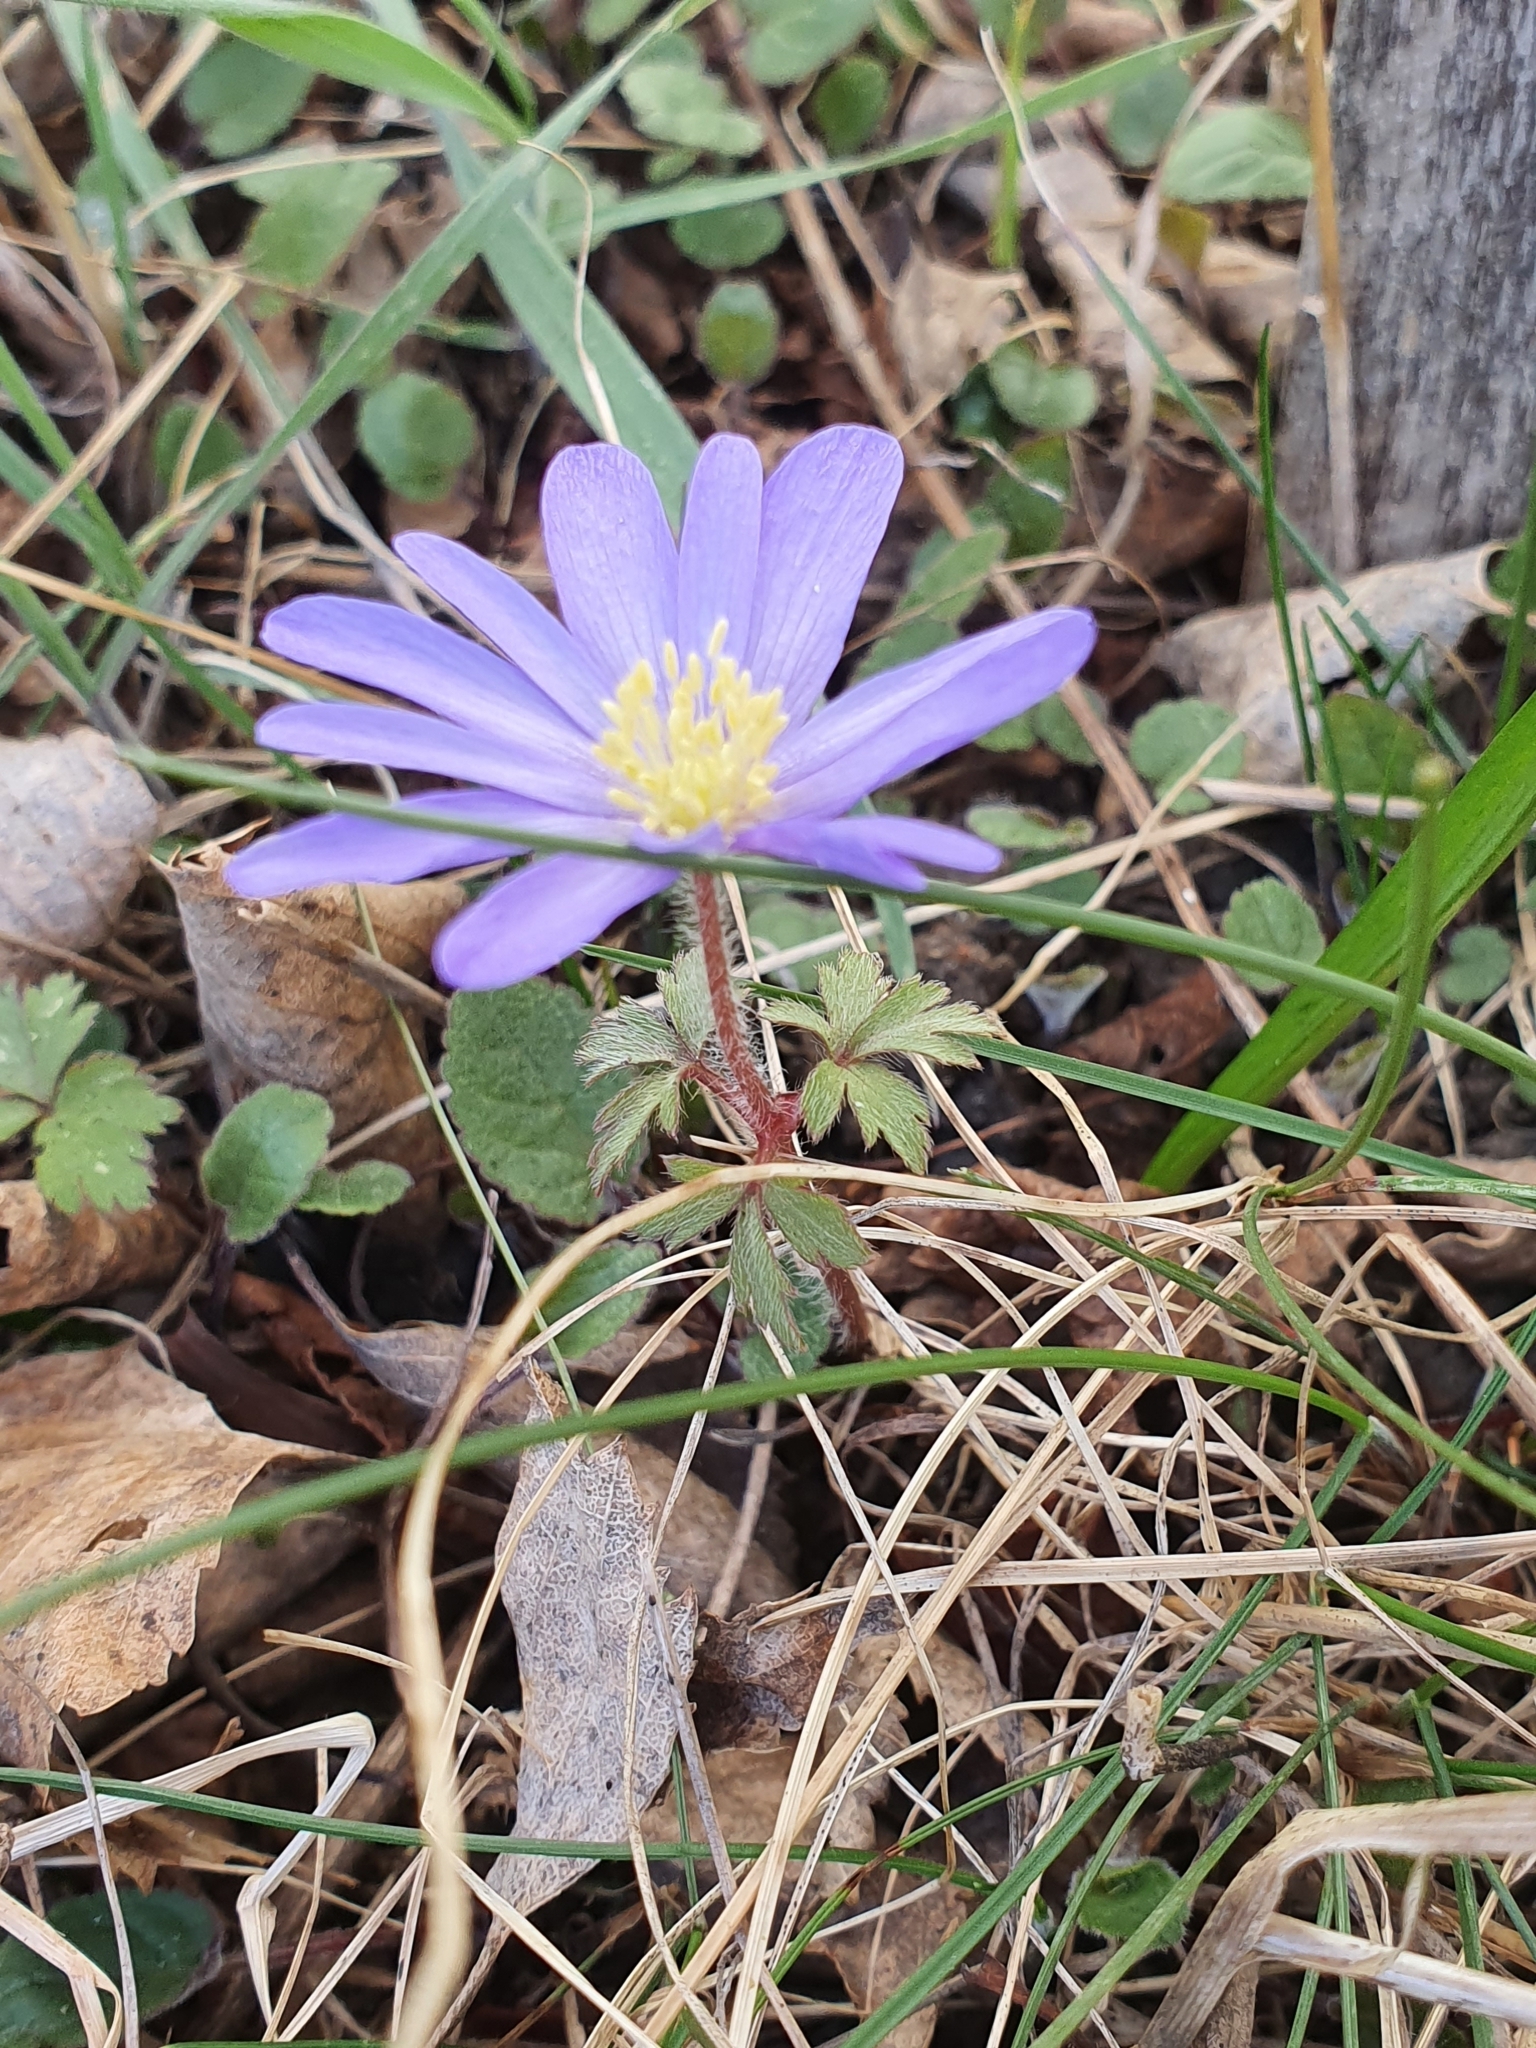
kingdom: Plantae
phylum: Tracheophyta
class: Magnoliopsida
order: Ranunculales
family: Ranunculaceae
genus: Anemone
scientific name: Anemone blanda
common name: Balkan anemone
